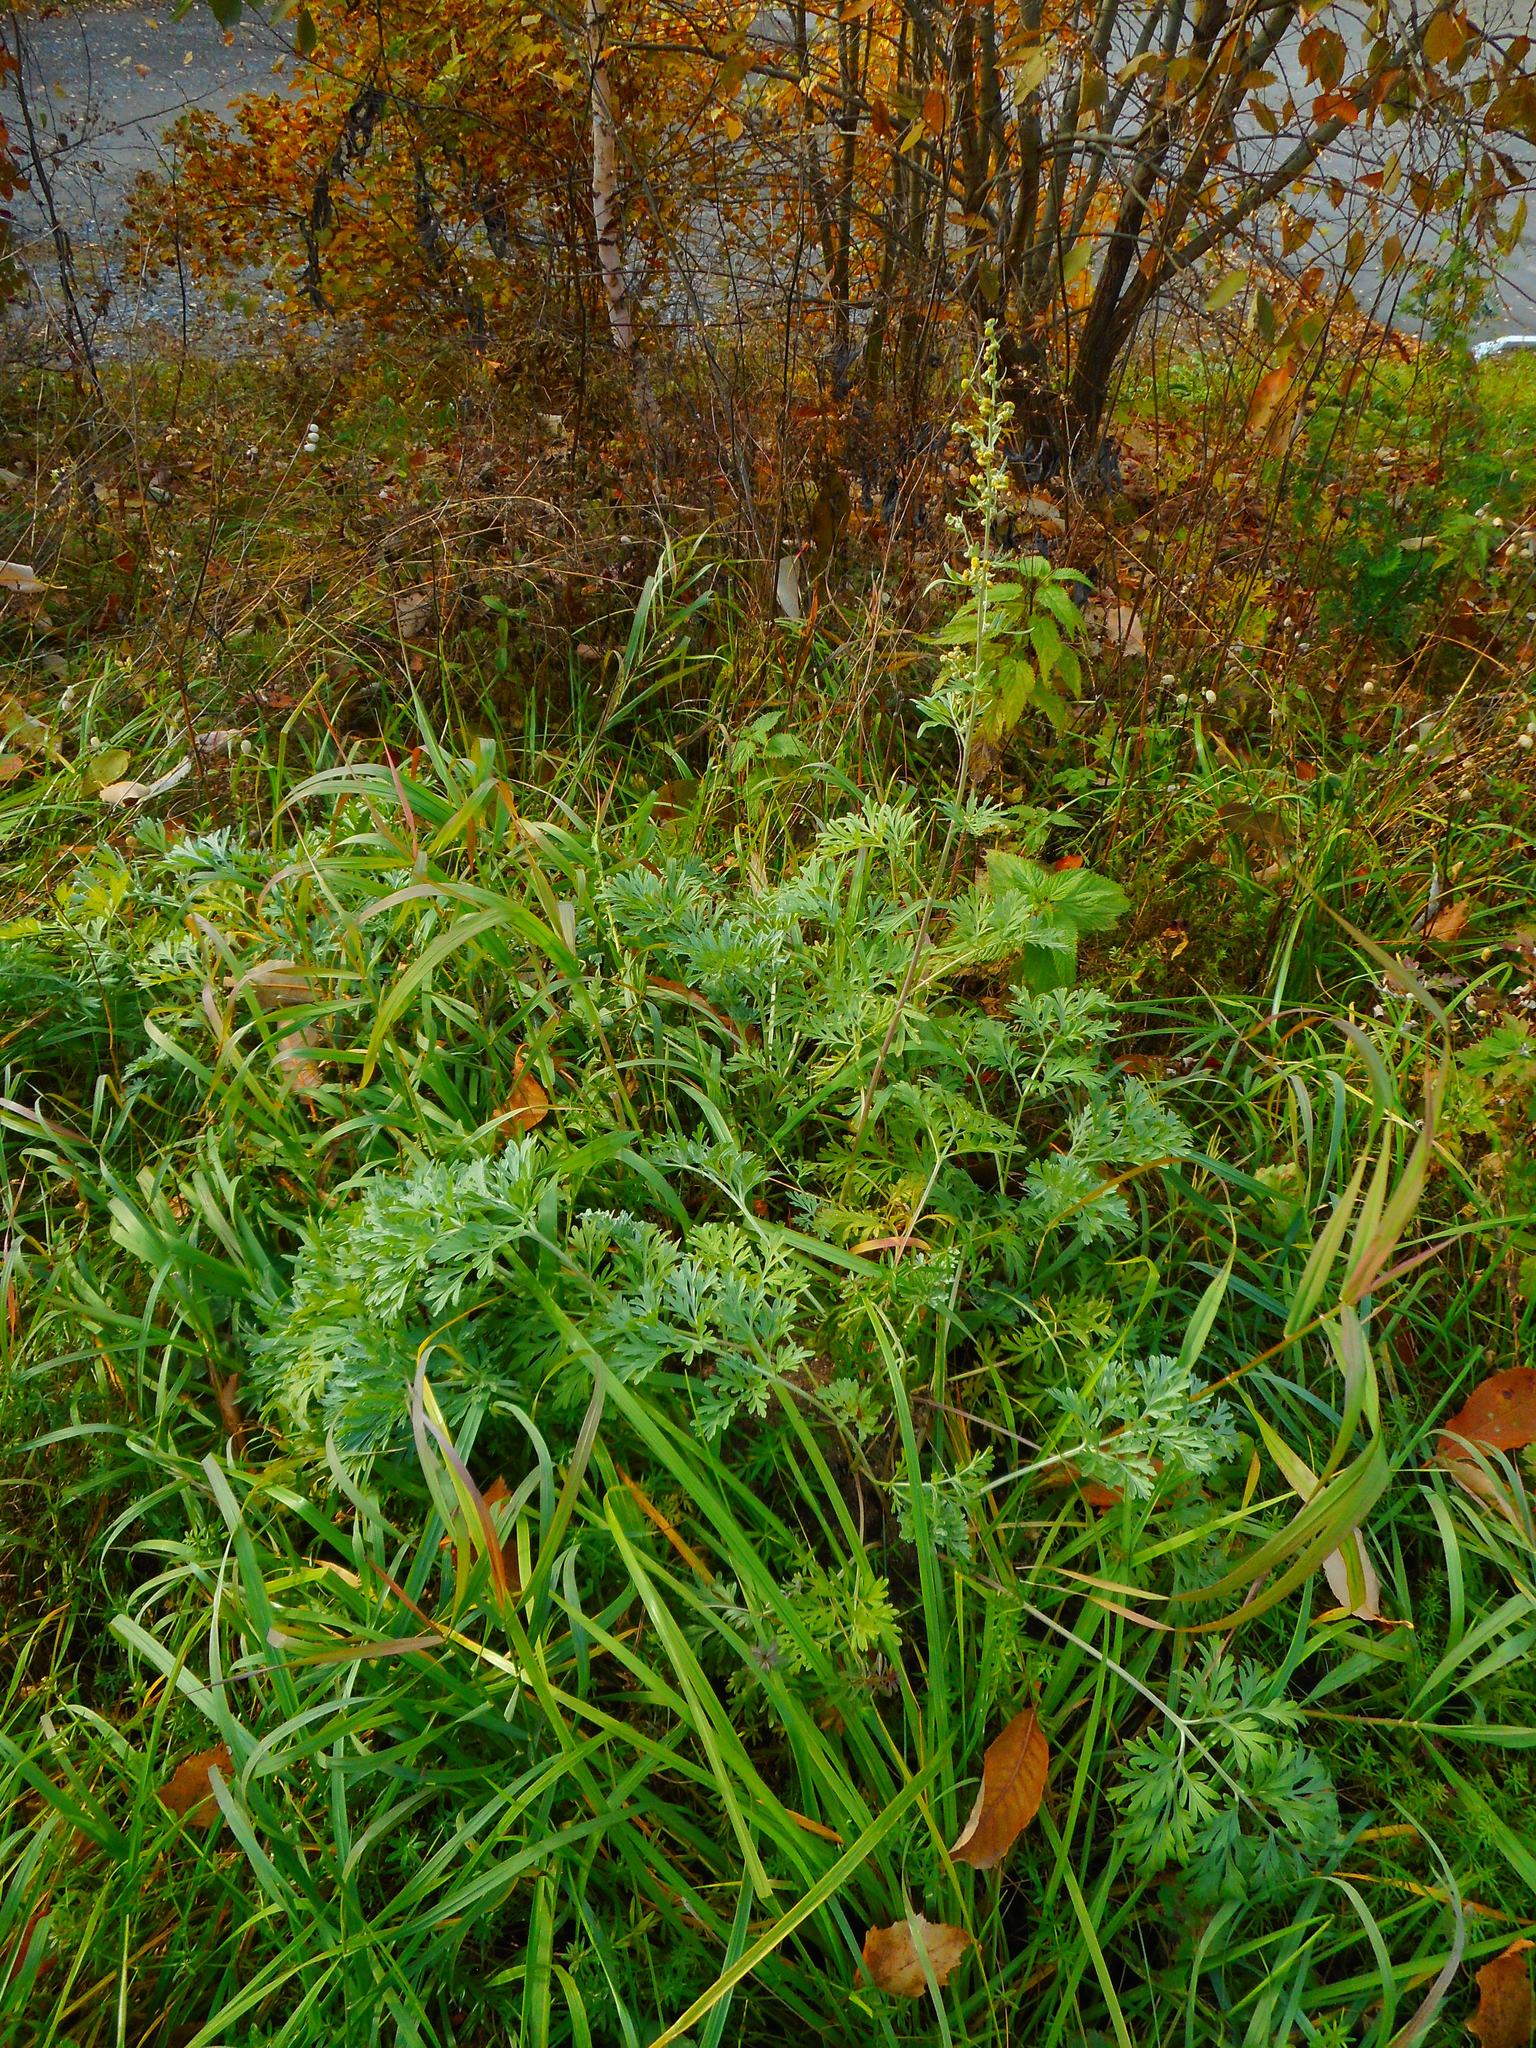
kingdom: Plantae
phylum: Tracheophyta
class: Magnoliopsida
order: Asterales
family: Asteraceae
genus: Artemisia
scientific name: Artemisia absinthium
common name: Wormwood
